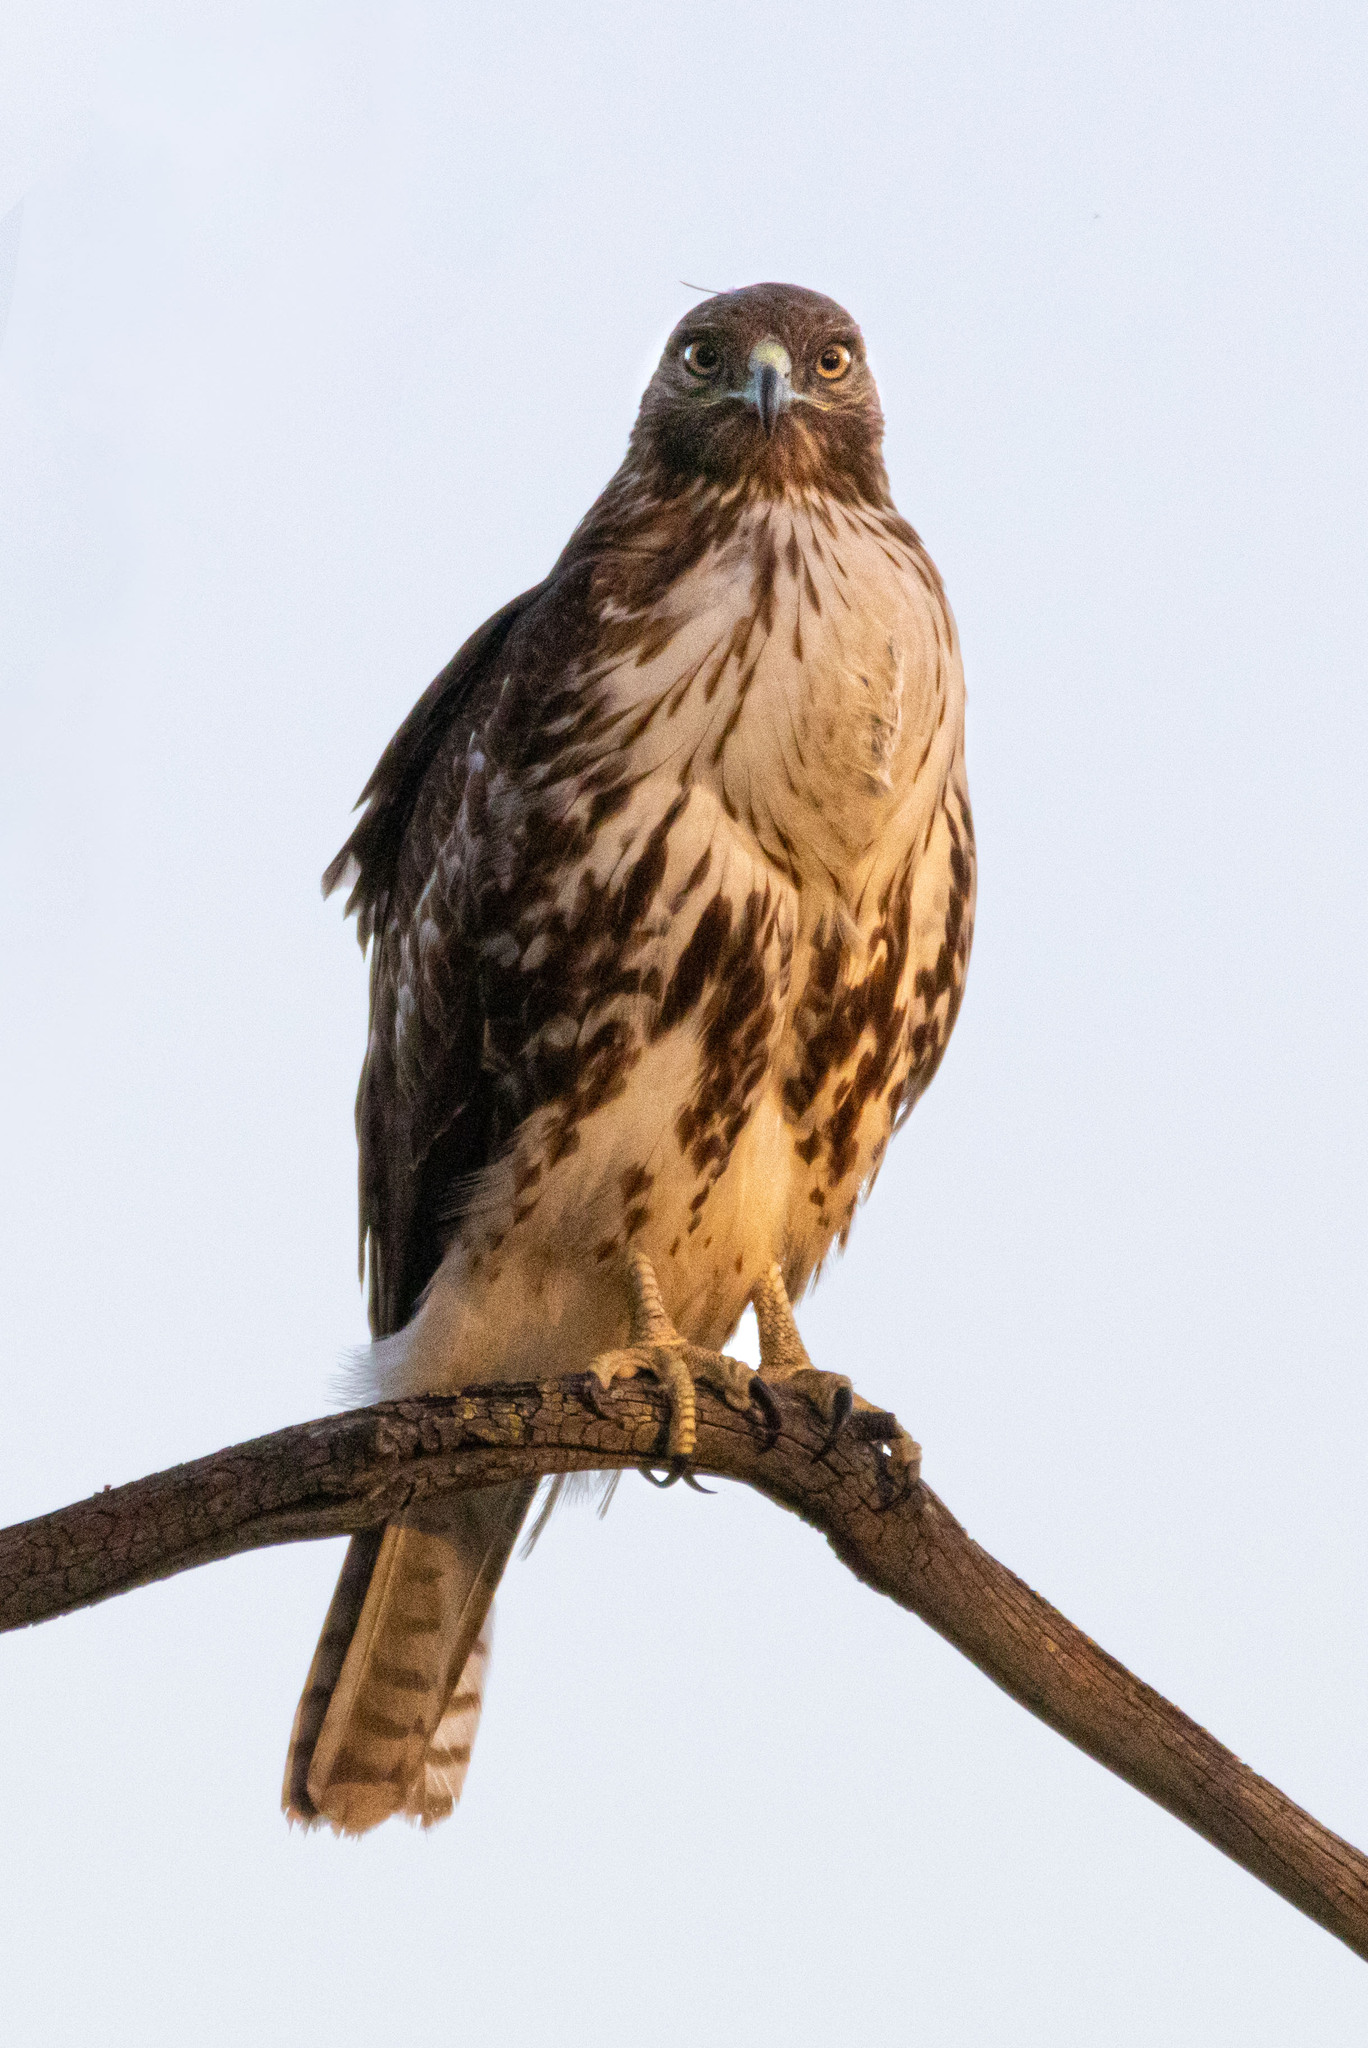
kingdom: Animalia
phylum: Chordata
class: Aves
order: Accipitriformes
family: Accipitridae
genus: Buteo
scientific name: Buteo jamaicensis
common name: Red-tailed hawk
